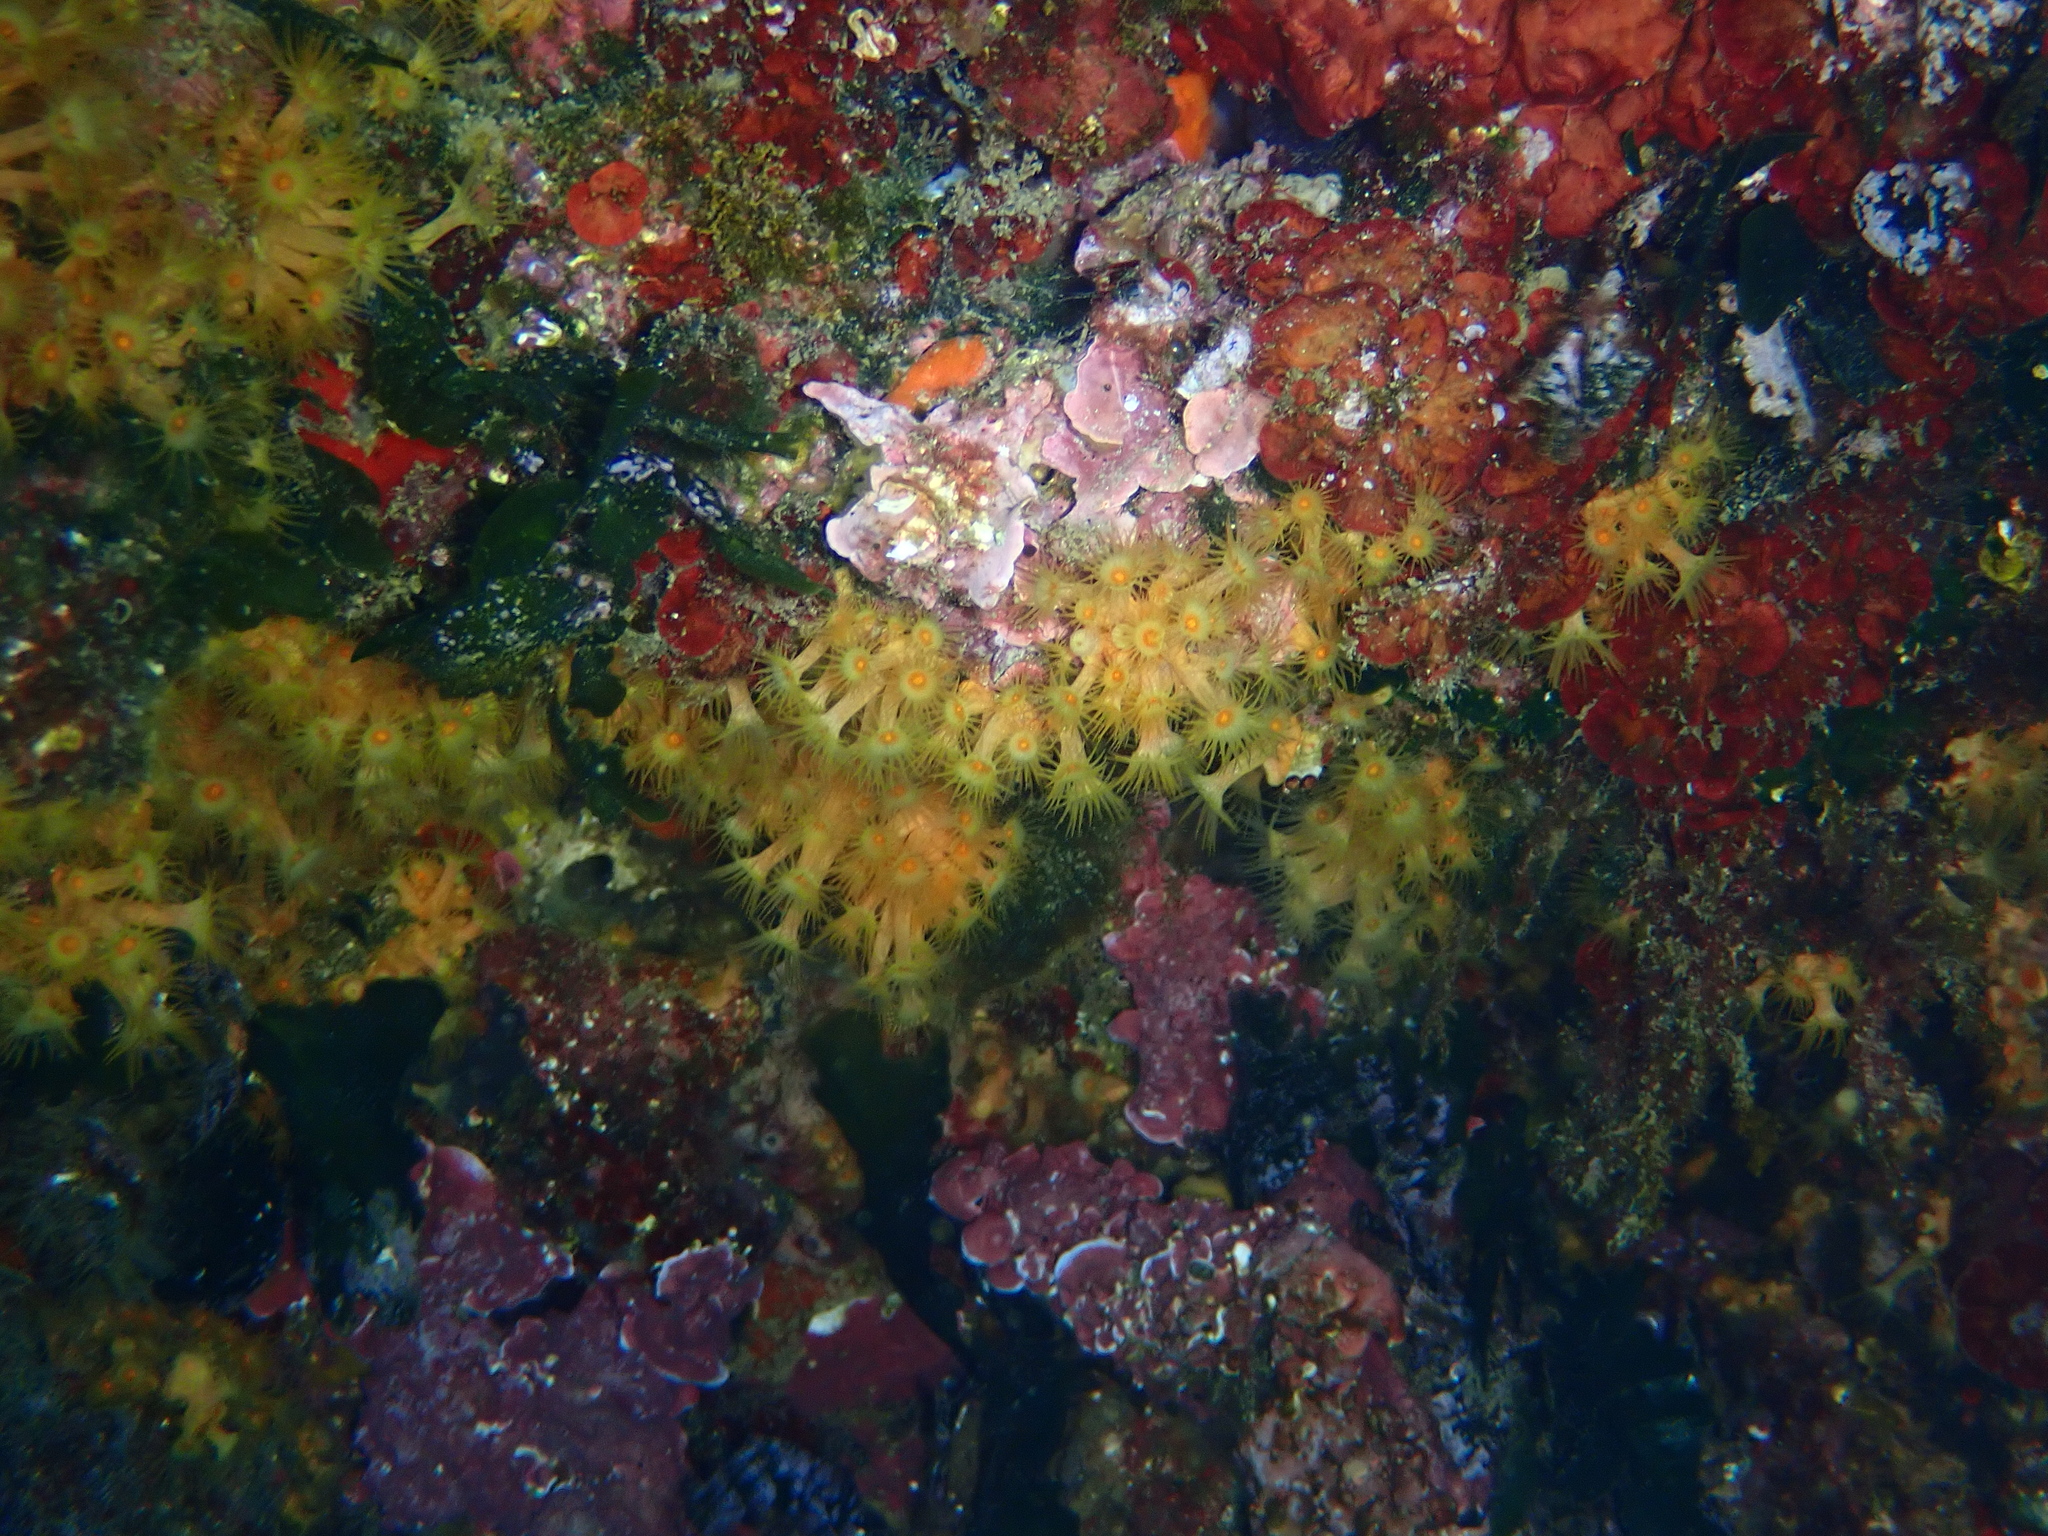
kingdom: Animalia
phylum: Cnidaria
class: Anthozoa
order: Zoantharia
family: Parazoanthidae
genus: Parazoanthus
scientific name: Parazoanthus axinellae
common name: Yellow cluster anemone
